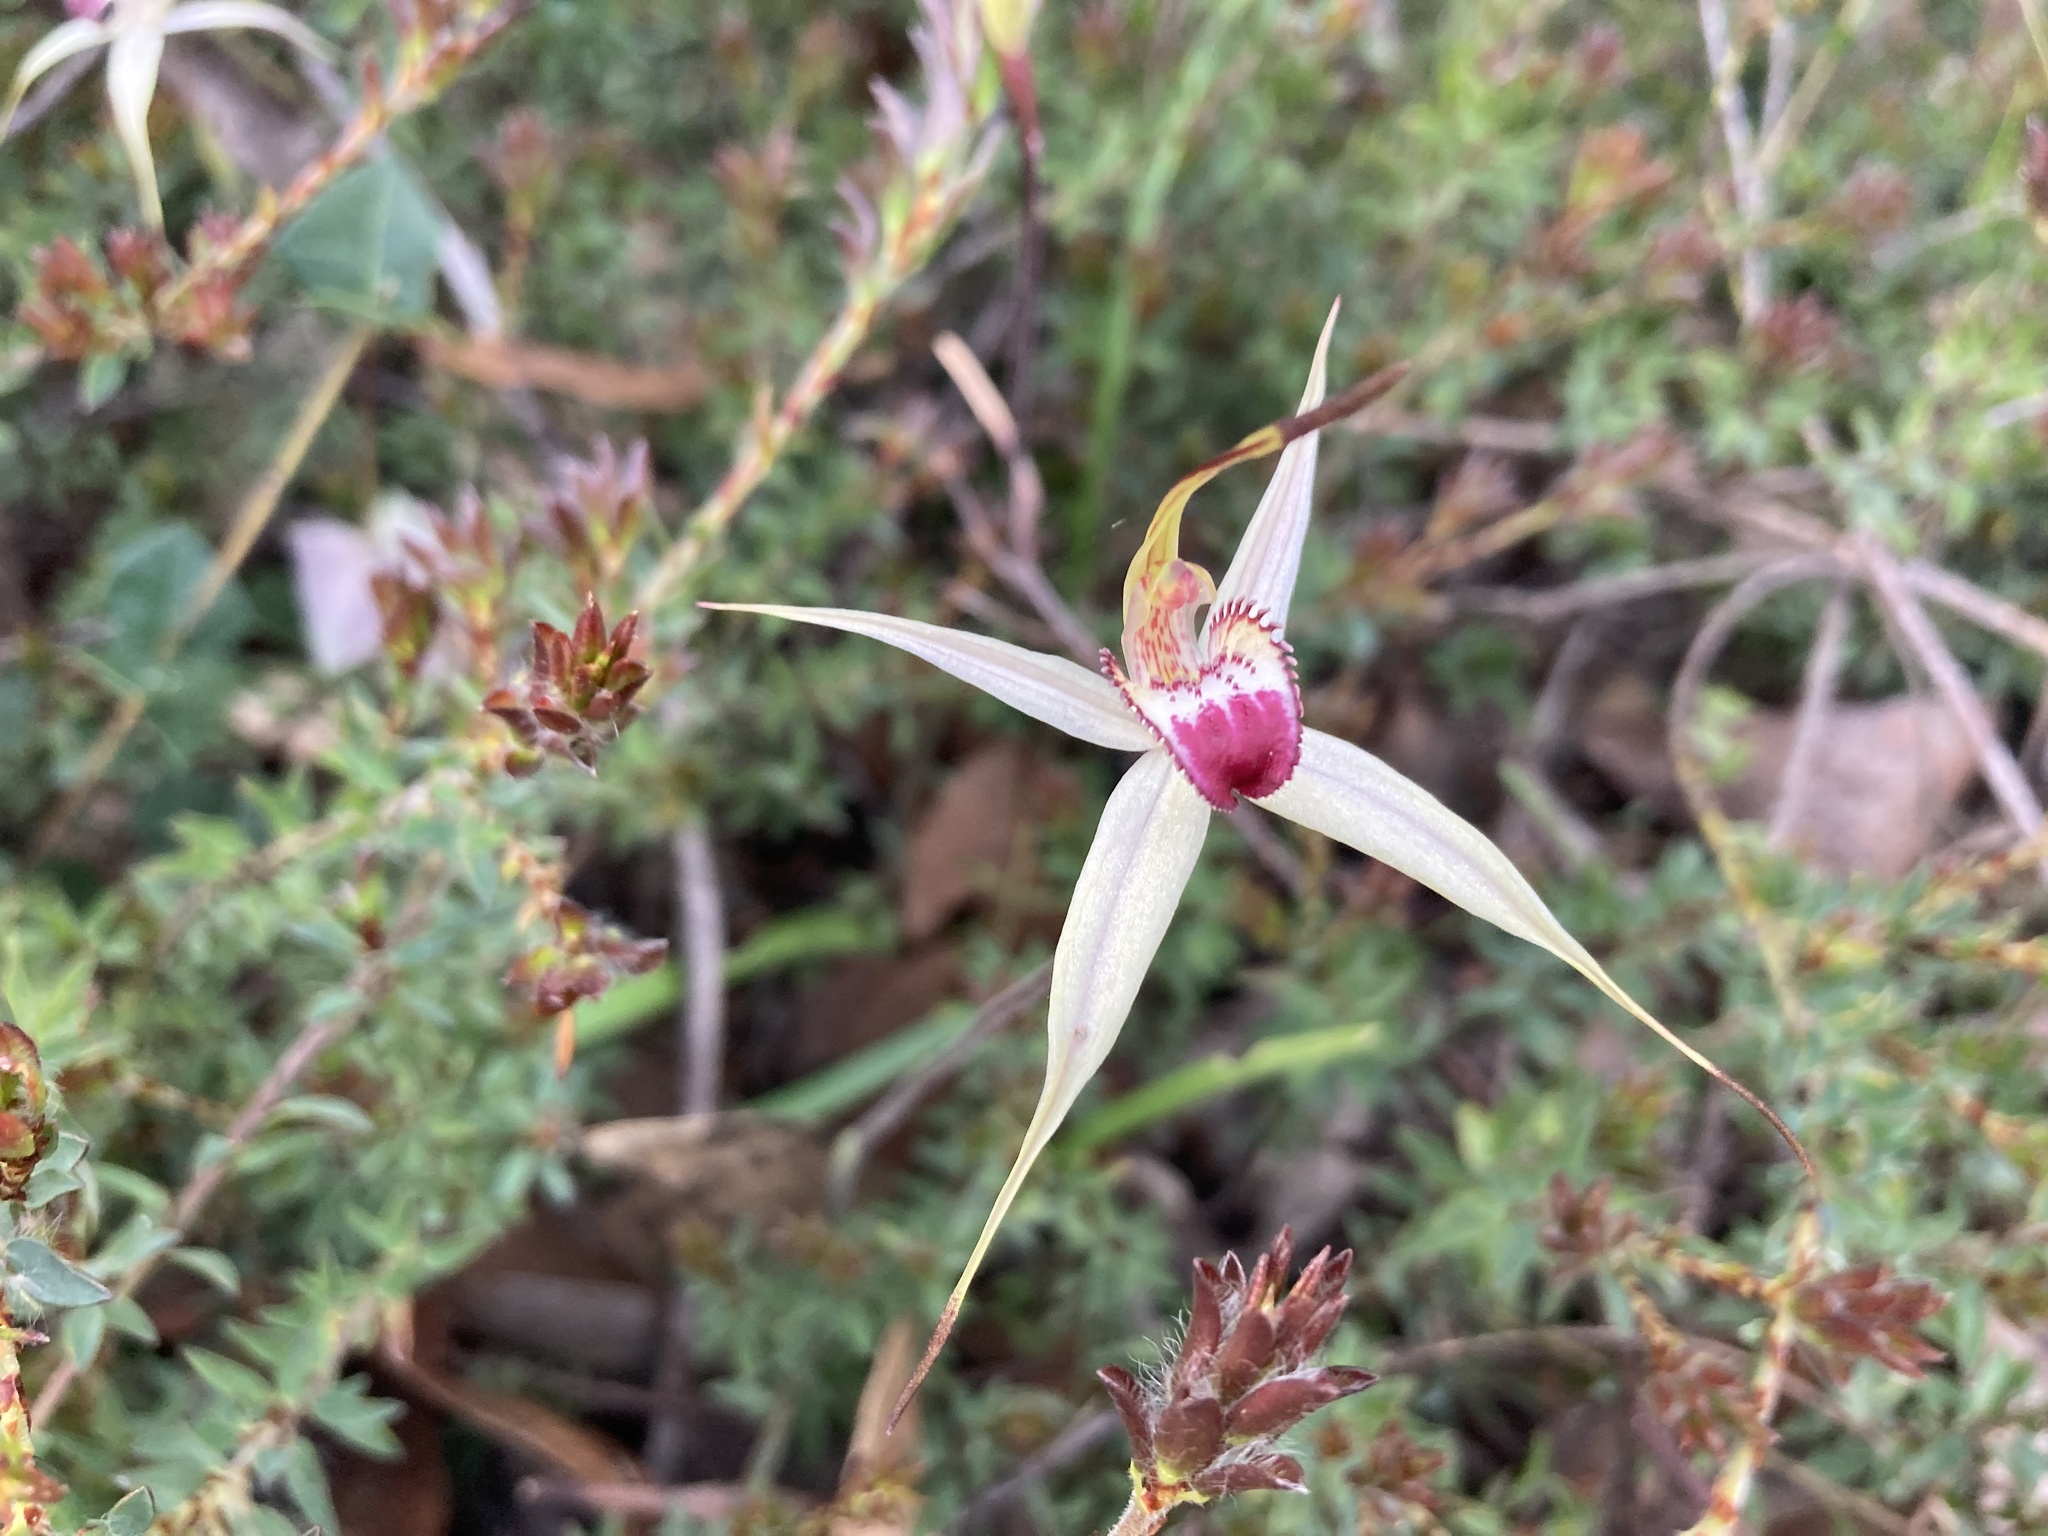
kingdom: Plantae
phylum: Tracheophyta
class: Liliopsida
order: Asparagales
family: Orchidaceae
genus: Caladenia
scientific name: Caladenia valida
